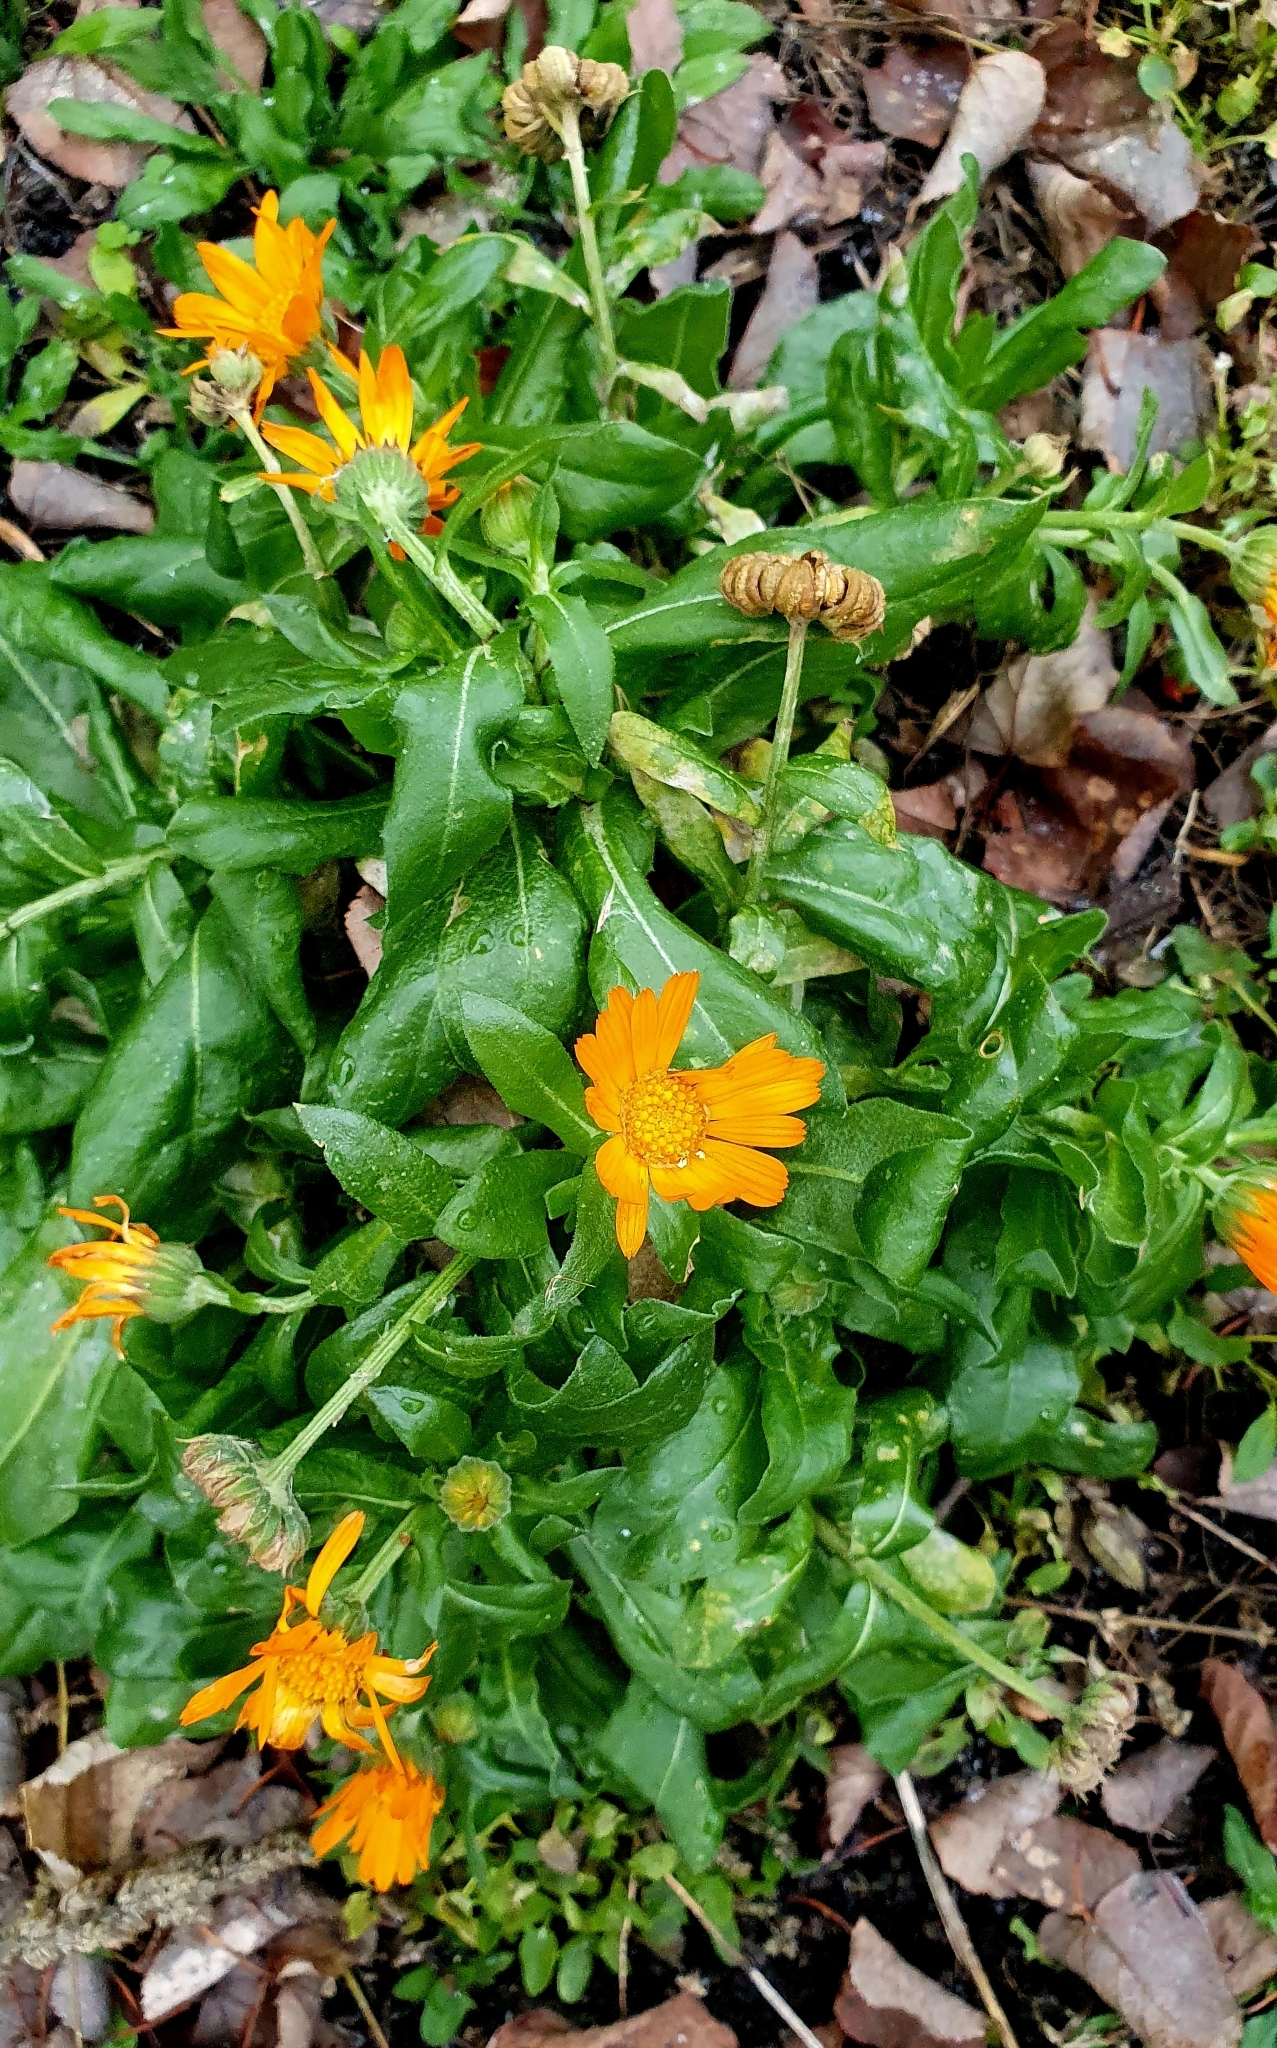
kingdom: Plantae
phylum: Tracheophyta
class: Magnoliopsida
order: Asterales
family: Asteraceae
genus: Calendula
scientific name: Calendula officinalis
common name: Pot marigold
